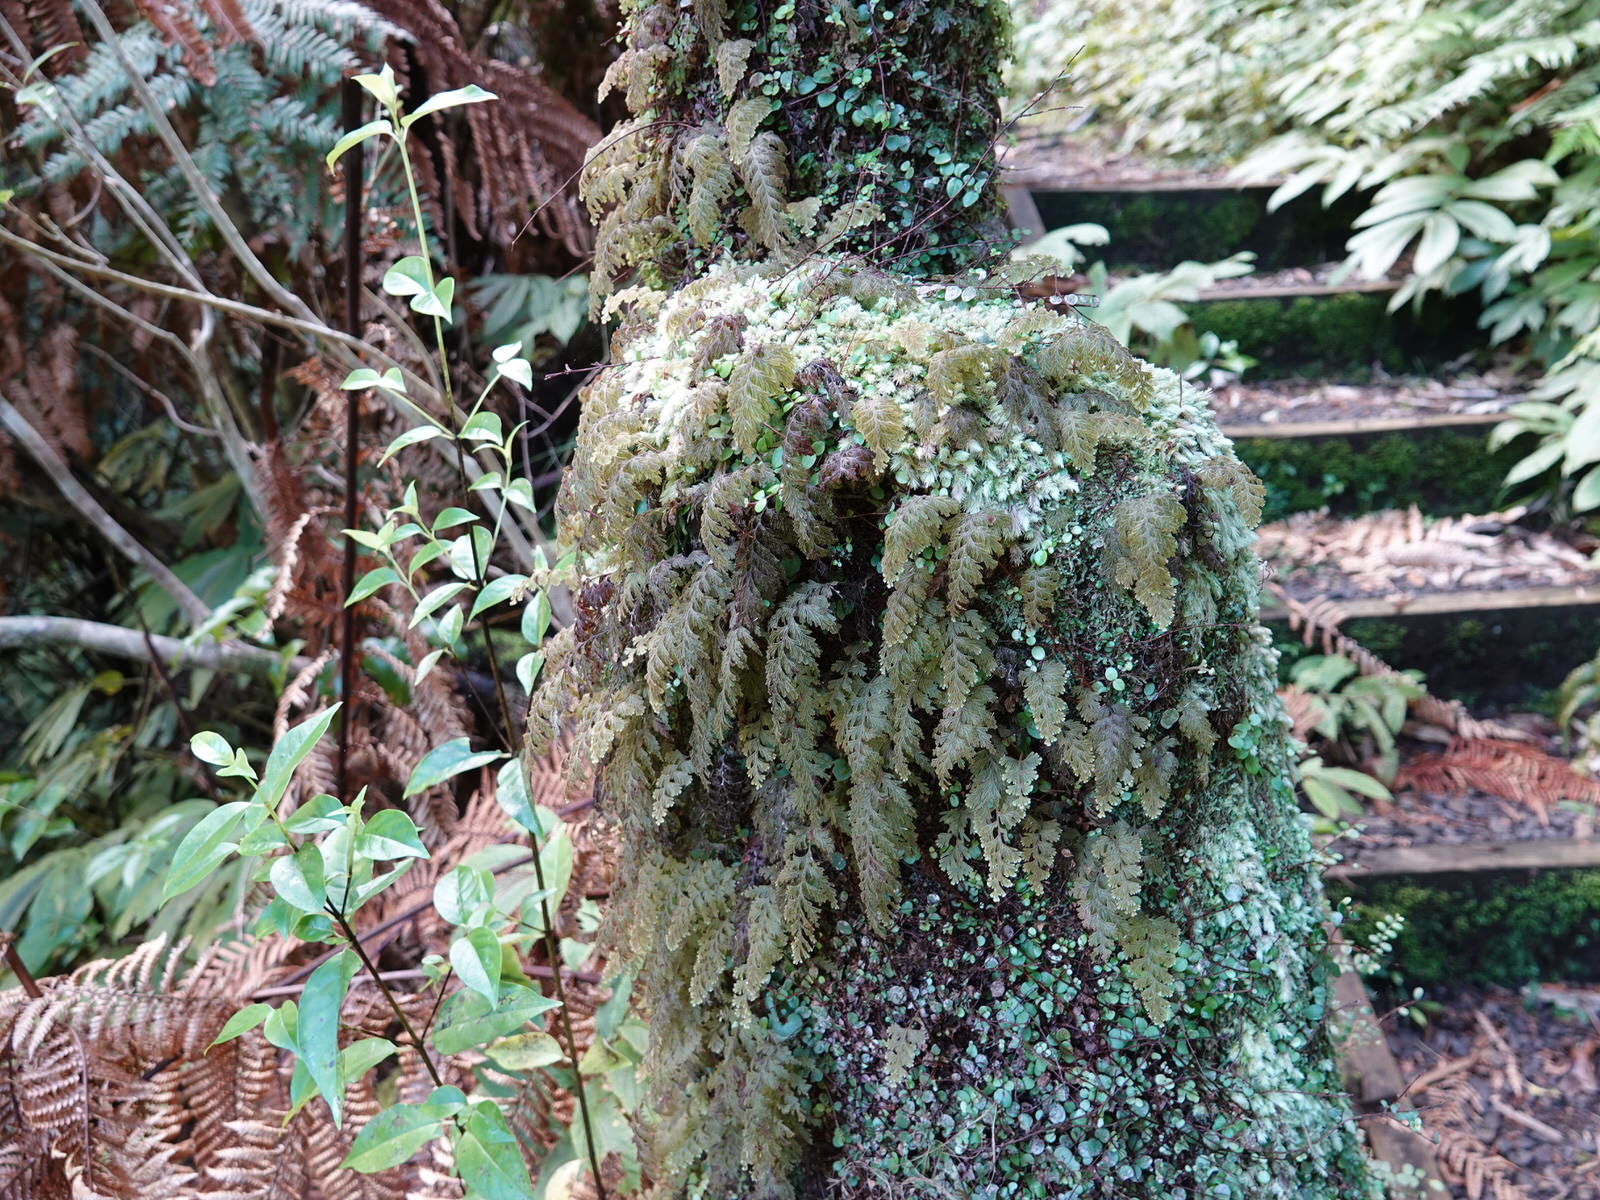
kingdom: Plantae
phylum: Tracheophyta
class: Polypodiopsida
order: Hymenophyllales
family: Hymenophyllaceae
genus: Hymenophyllum
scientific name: Hymenophyllum frankliniae
